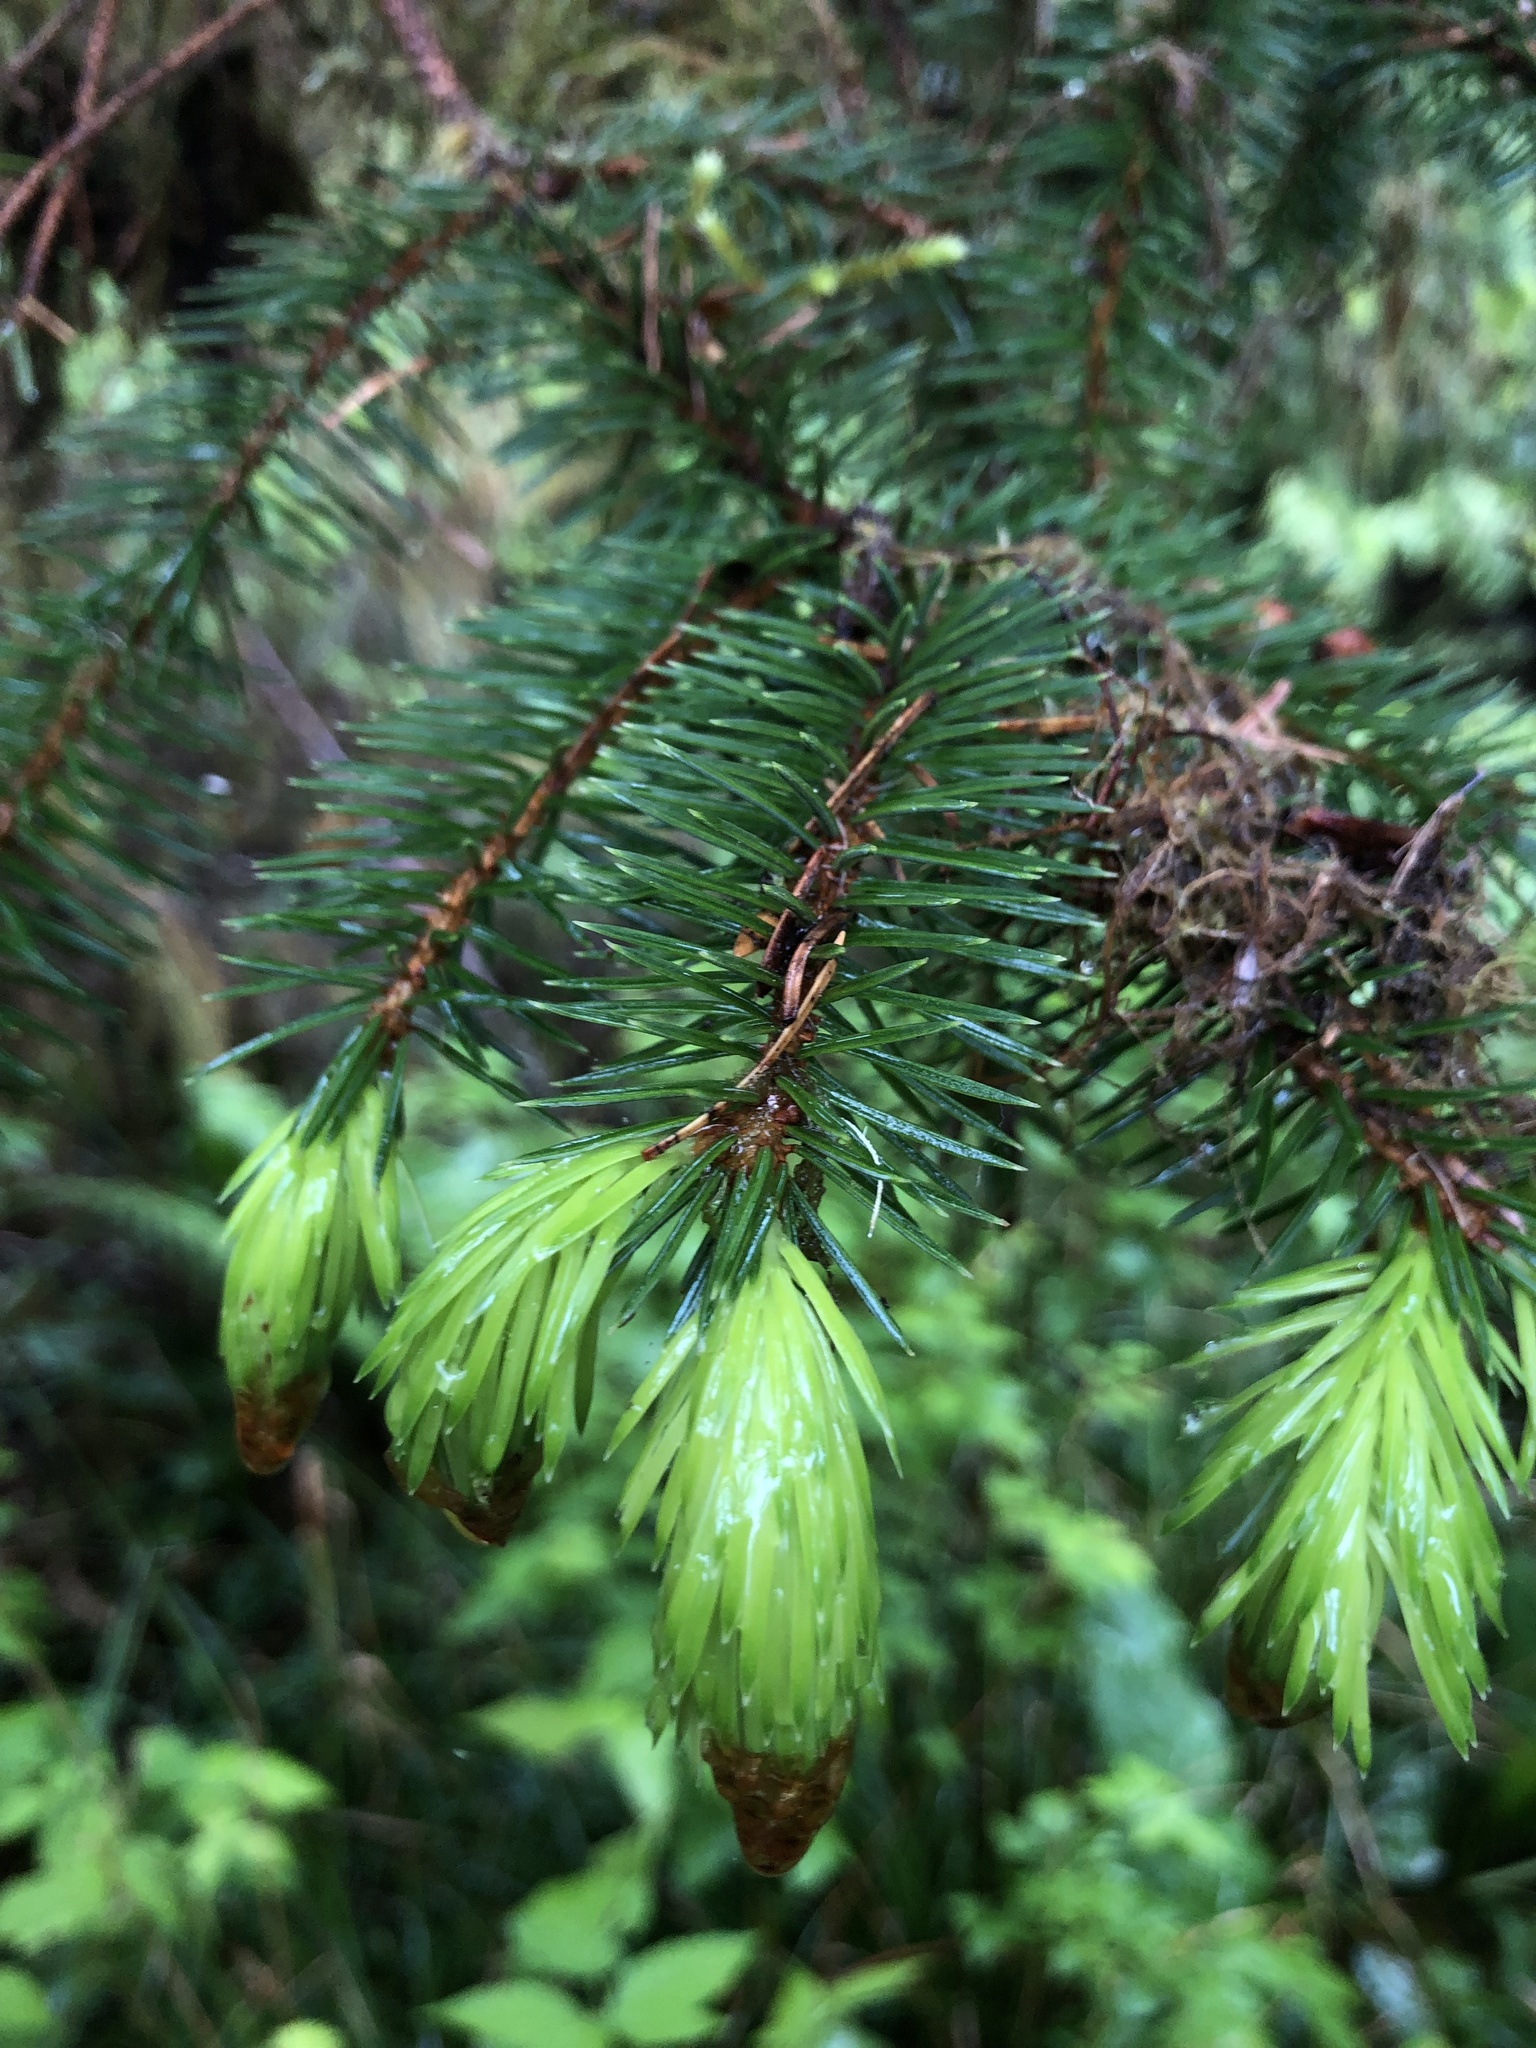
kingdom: Plantae
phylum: Tracheophyta
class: Pinopsida
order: Pinales
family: Pinaceae
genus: Picea
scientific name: Picea sitchensis
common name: Sitka spruce
